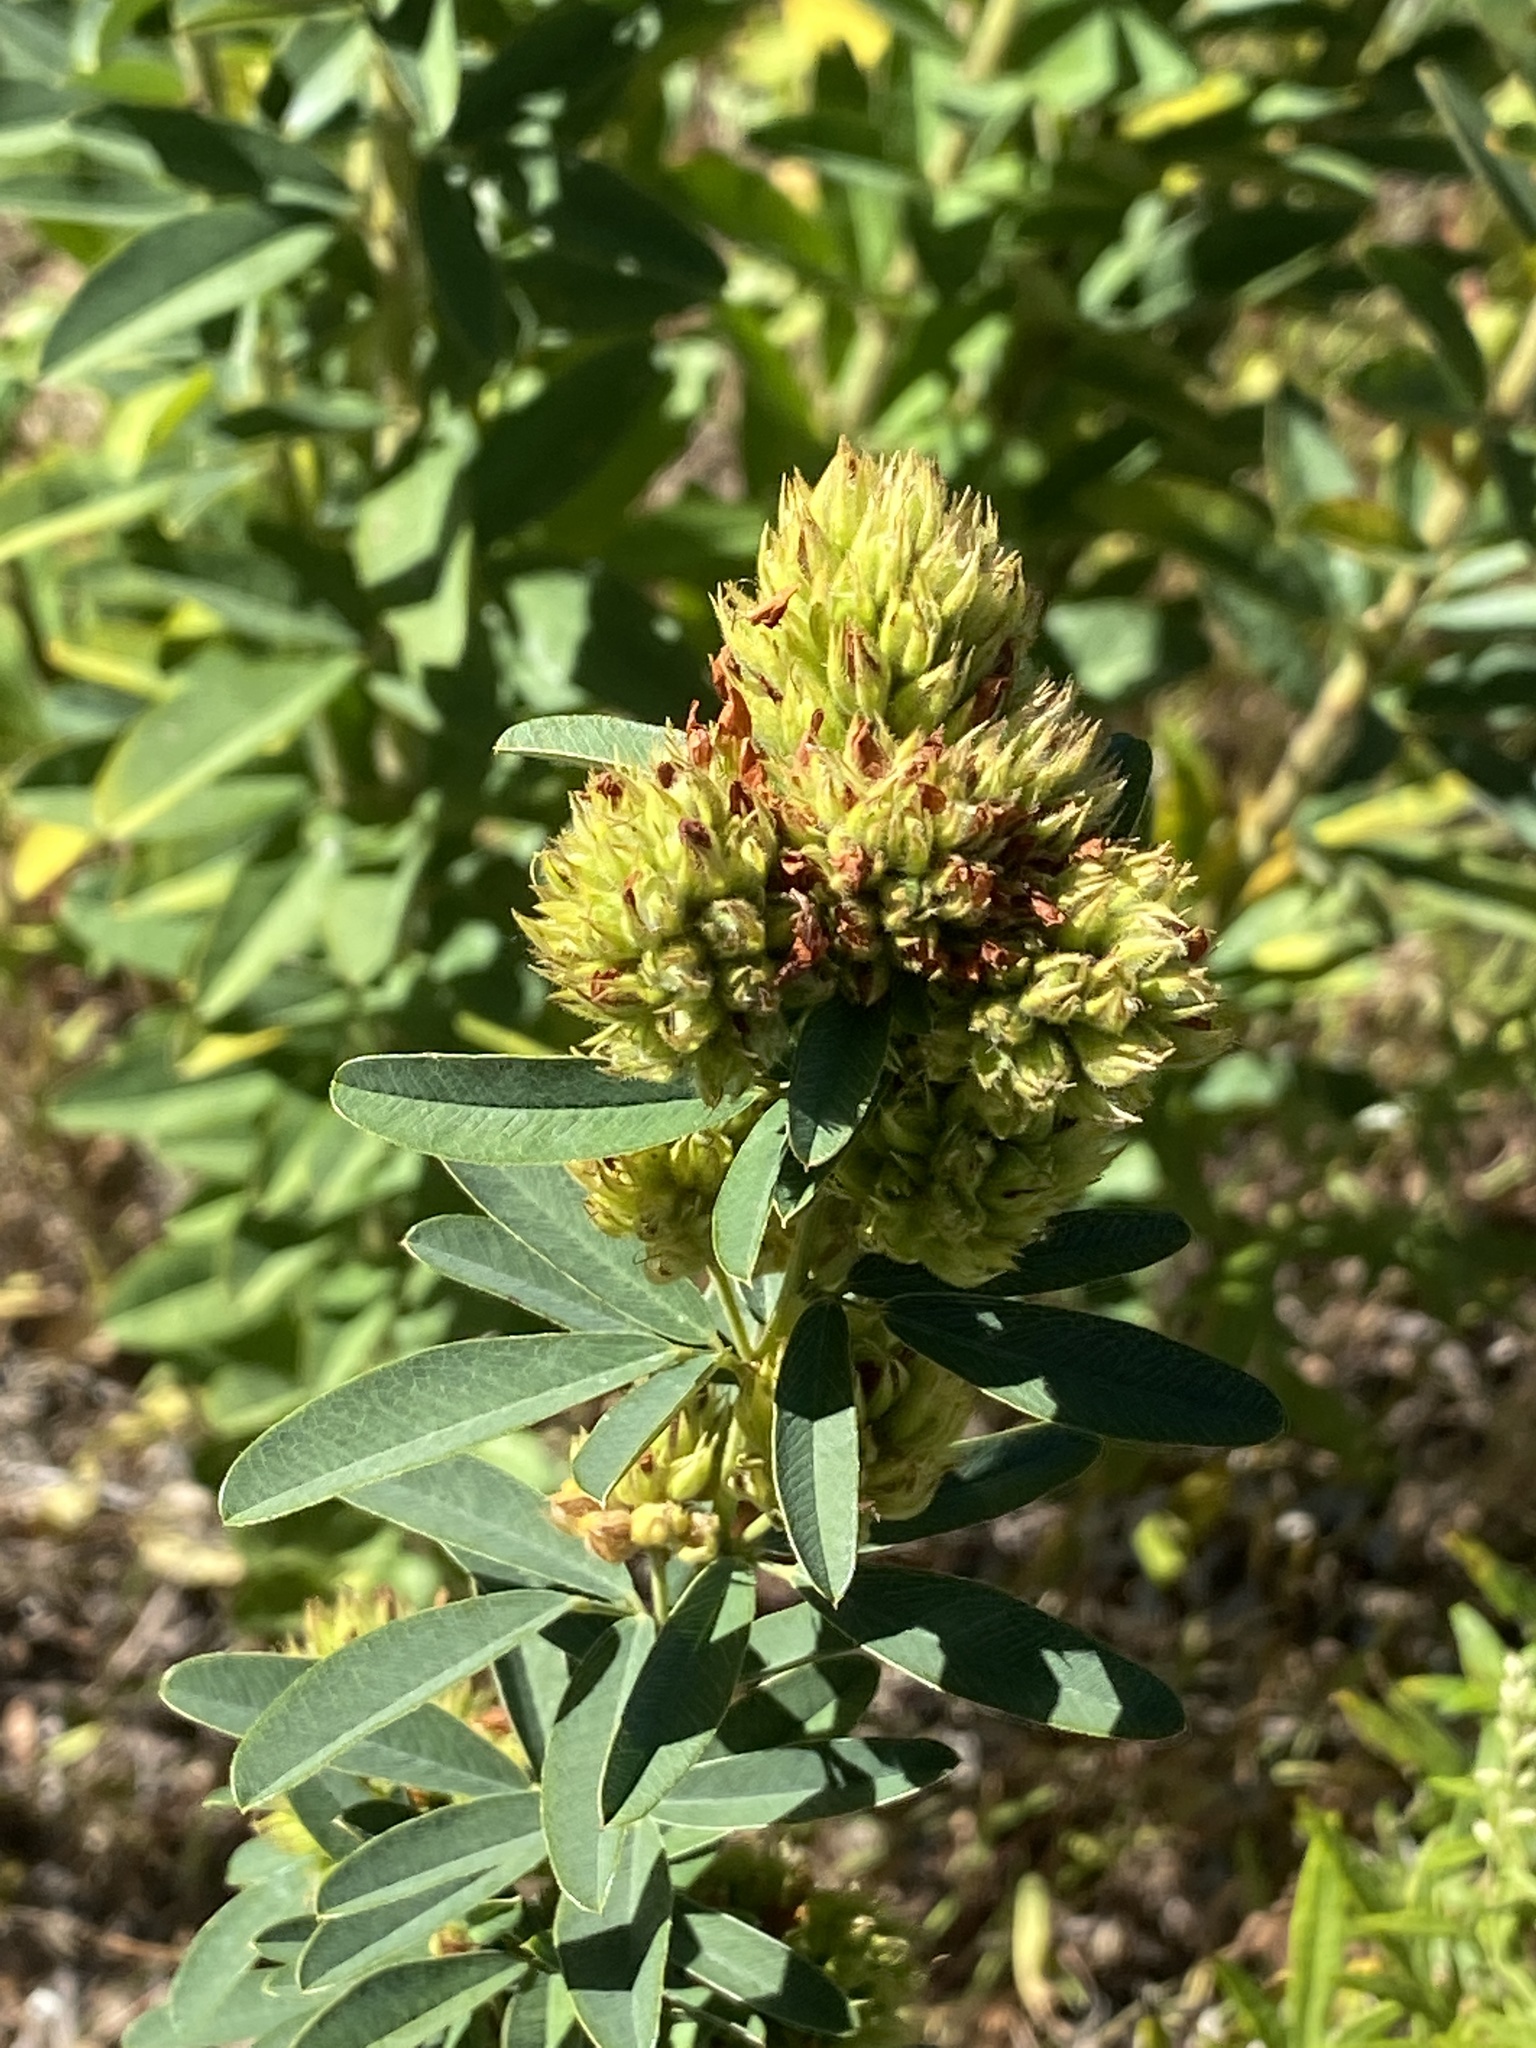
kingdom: Plantae
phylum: Tracheophyta
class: Magnoliopsida
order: Fabales
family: Fabaceae
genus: Lespedeza
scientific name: Lespedeza capitata
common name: Dusty clover
